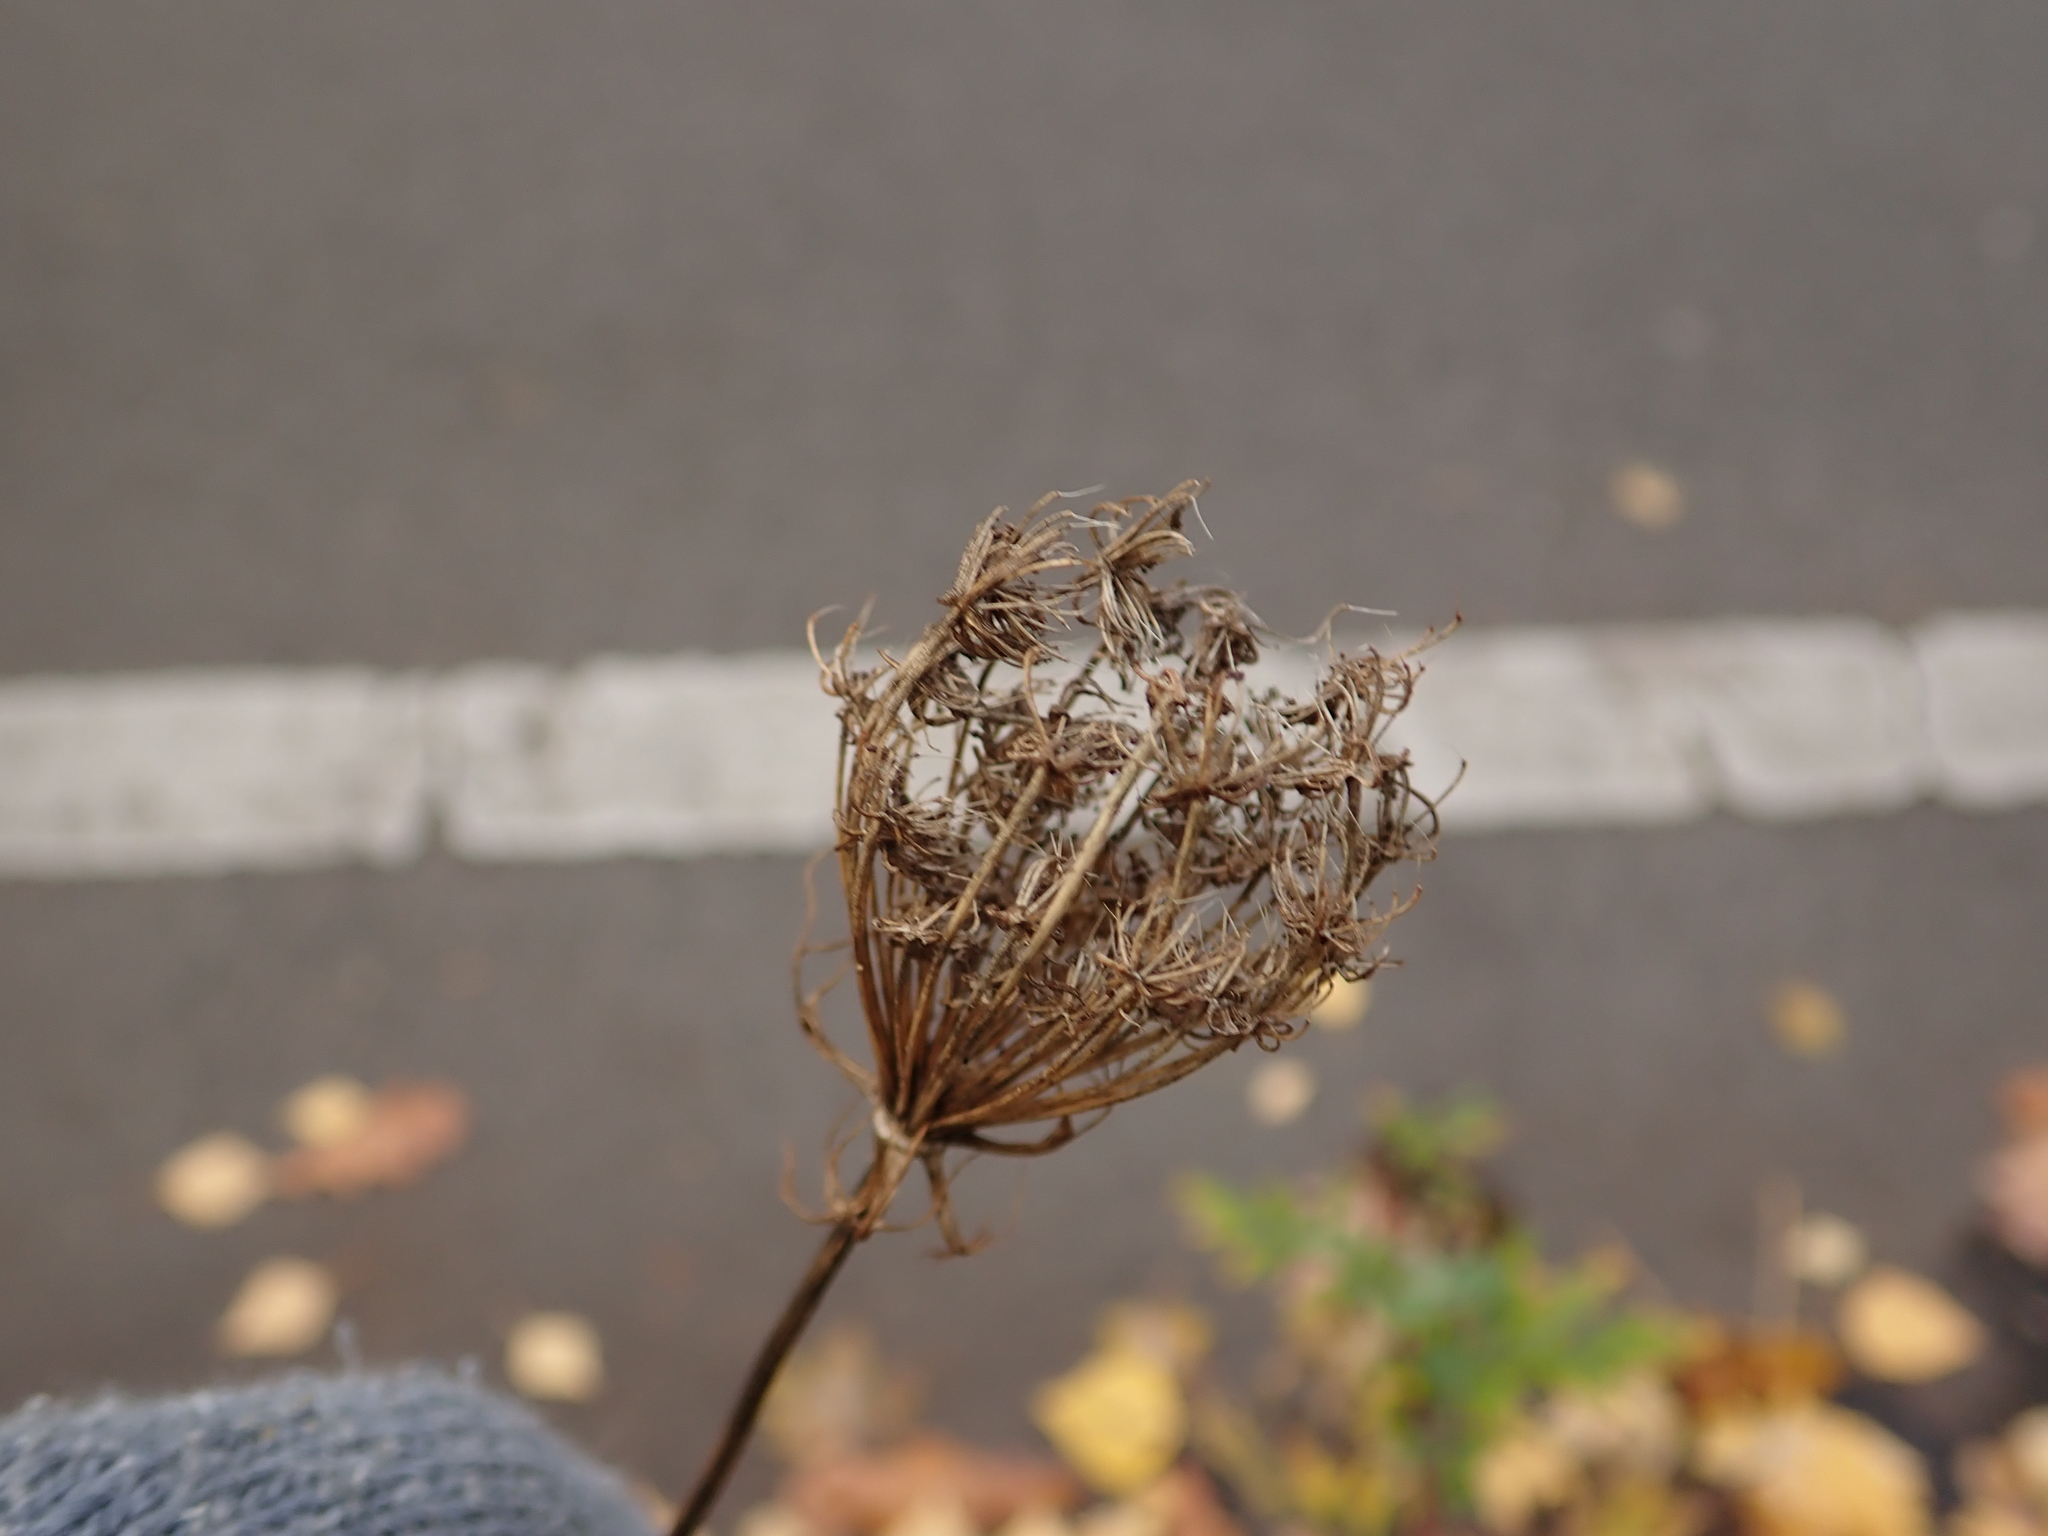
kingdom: Plantae
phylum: Tracheophyta
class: Magnoliopsida
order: Apiales
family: Apiaceae
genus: Daucus
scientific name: Daucus carota
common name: Wild carrot
